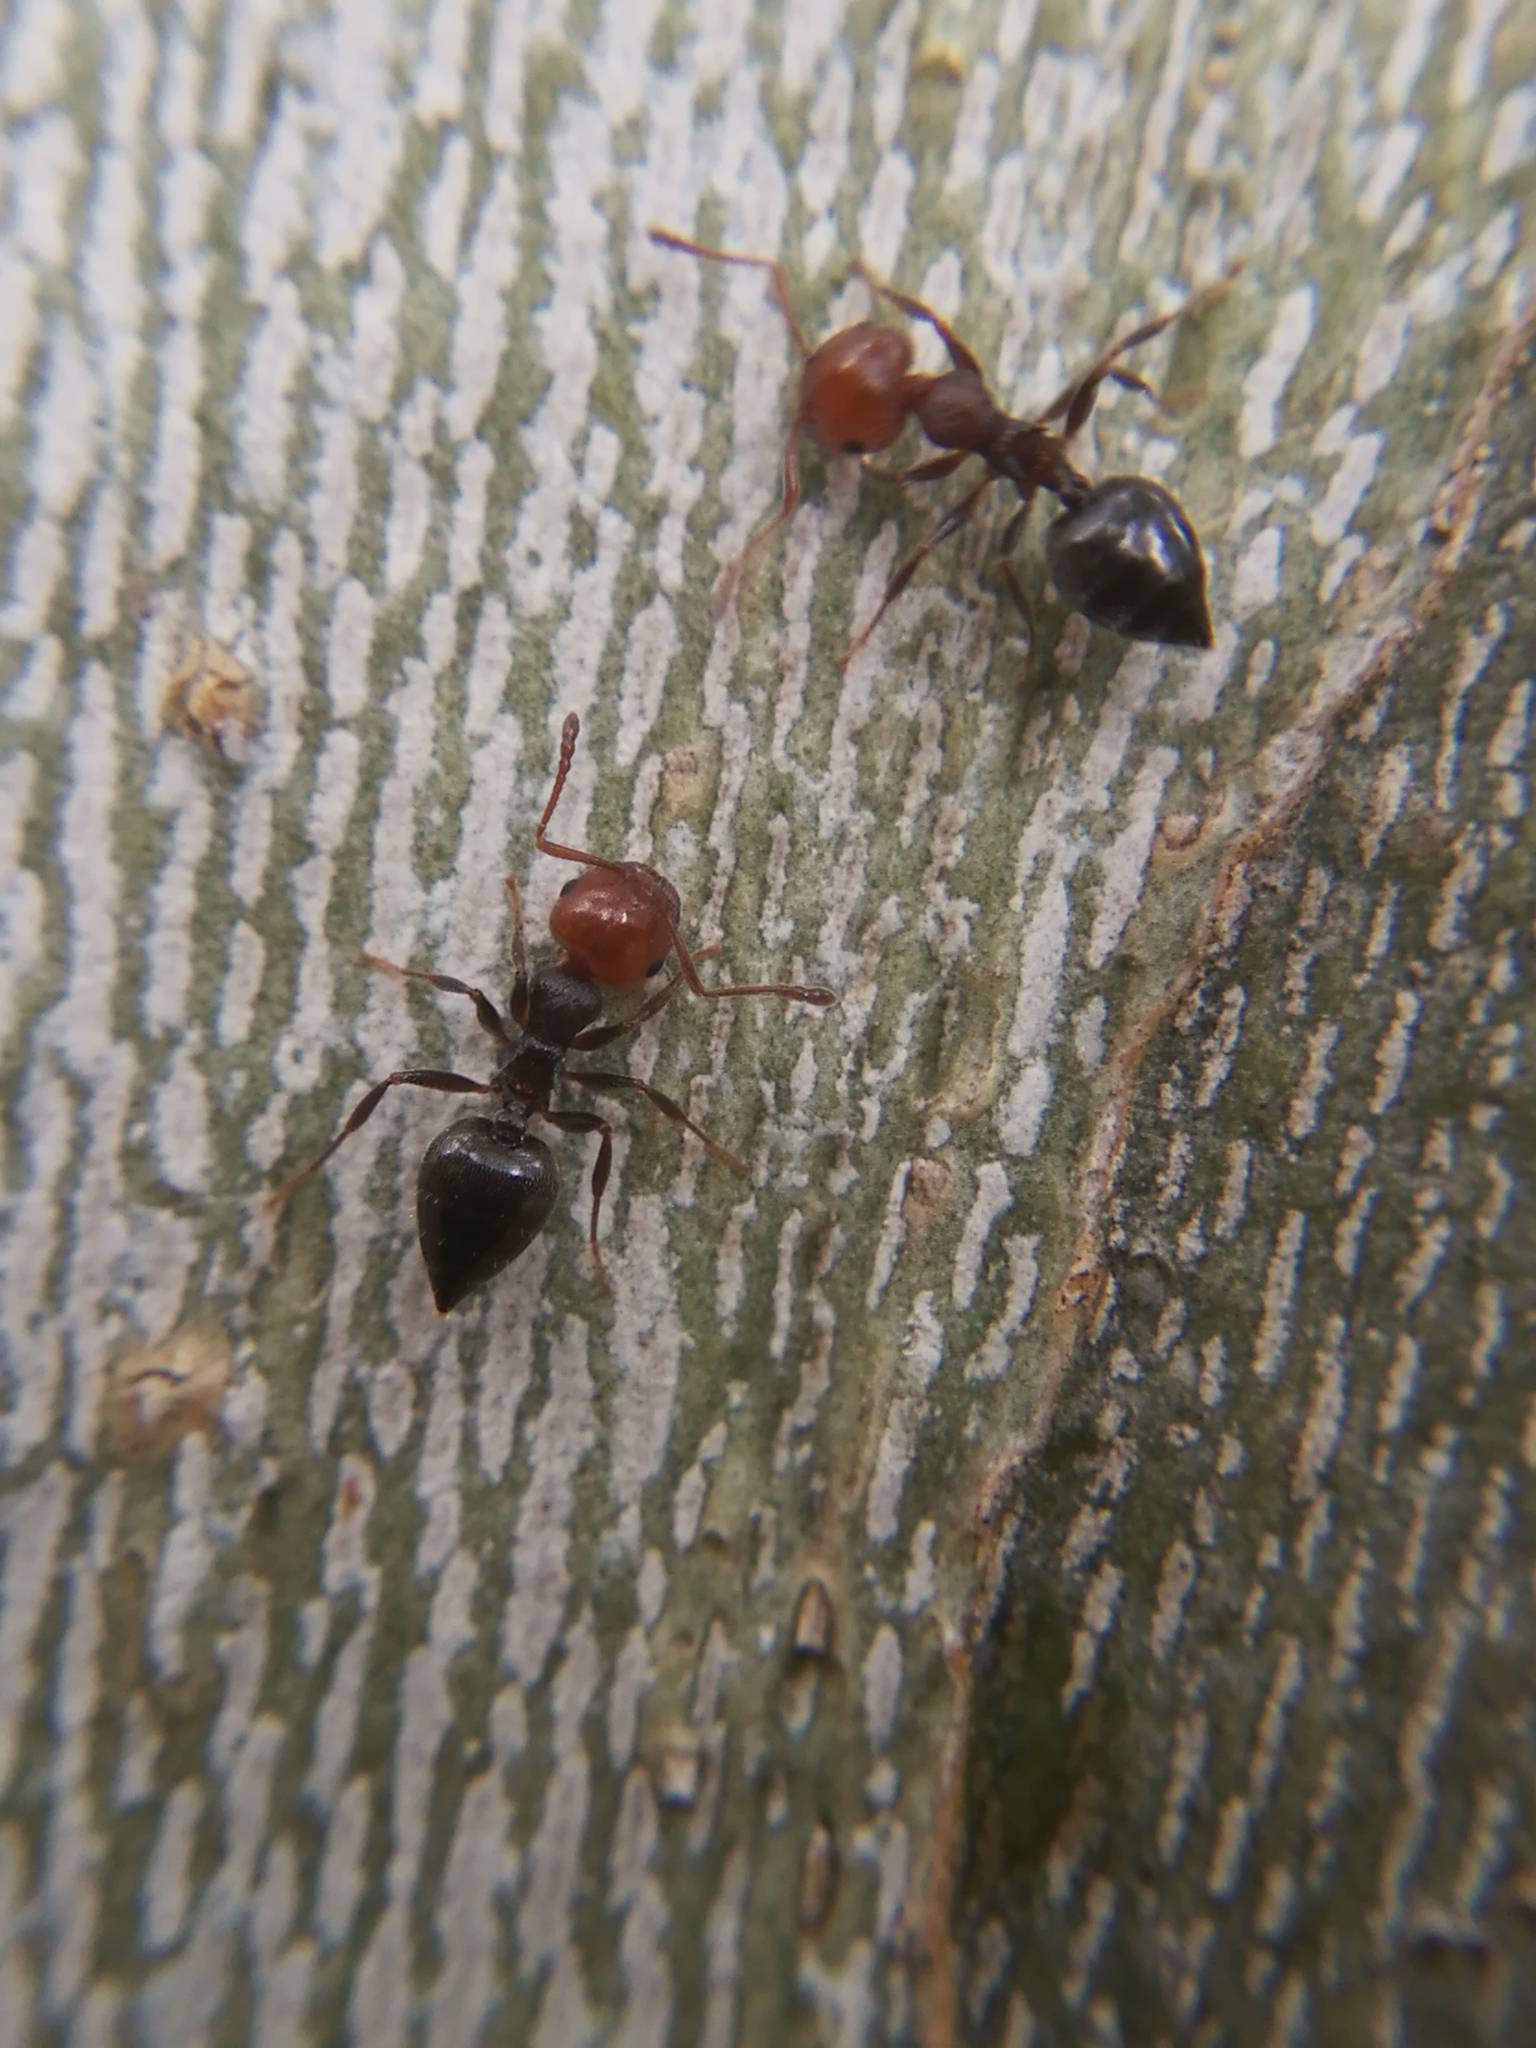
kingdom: Animalia
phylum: Arthropoda
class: Insecta
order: Hymenoptera
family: Formicidae
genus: Crematogaster
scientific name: Crematogaster scutellaris
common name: Fourmi du liège
